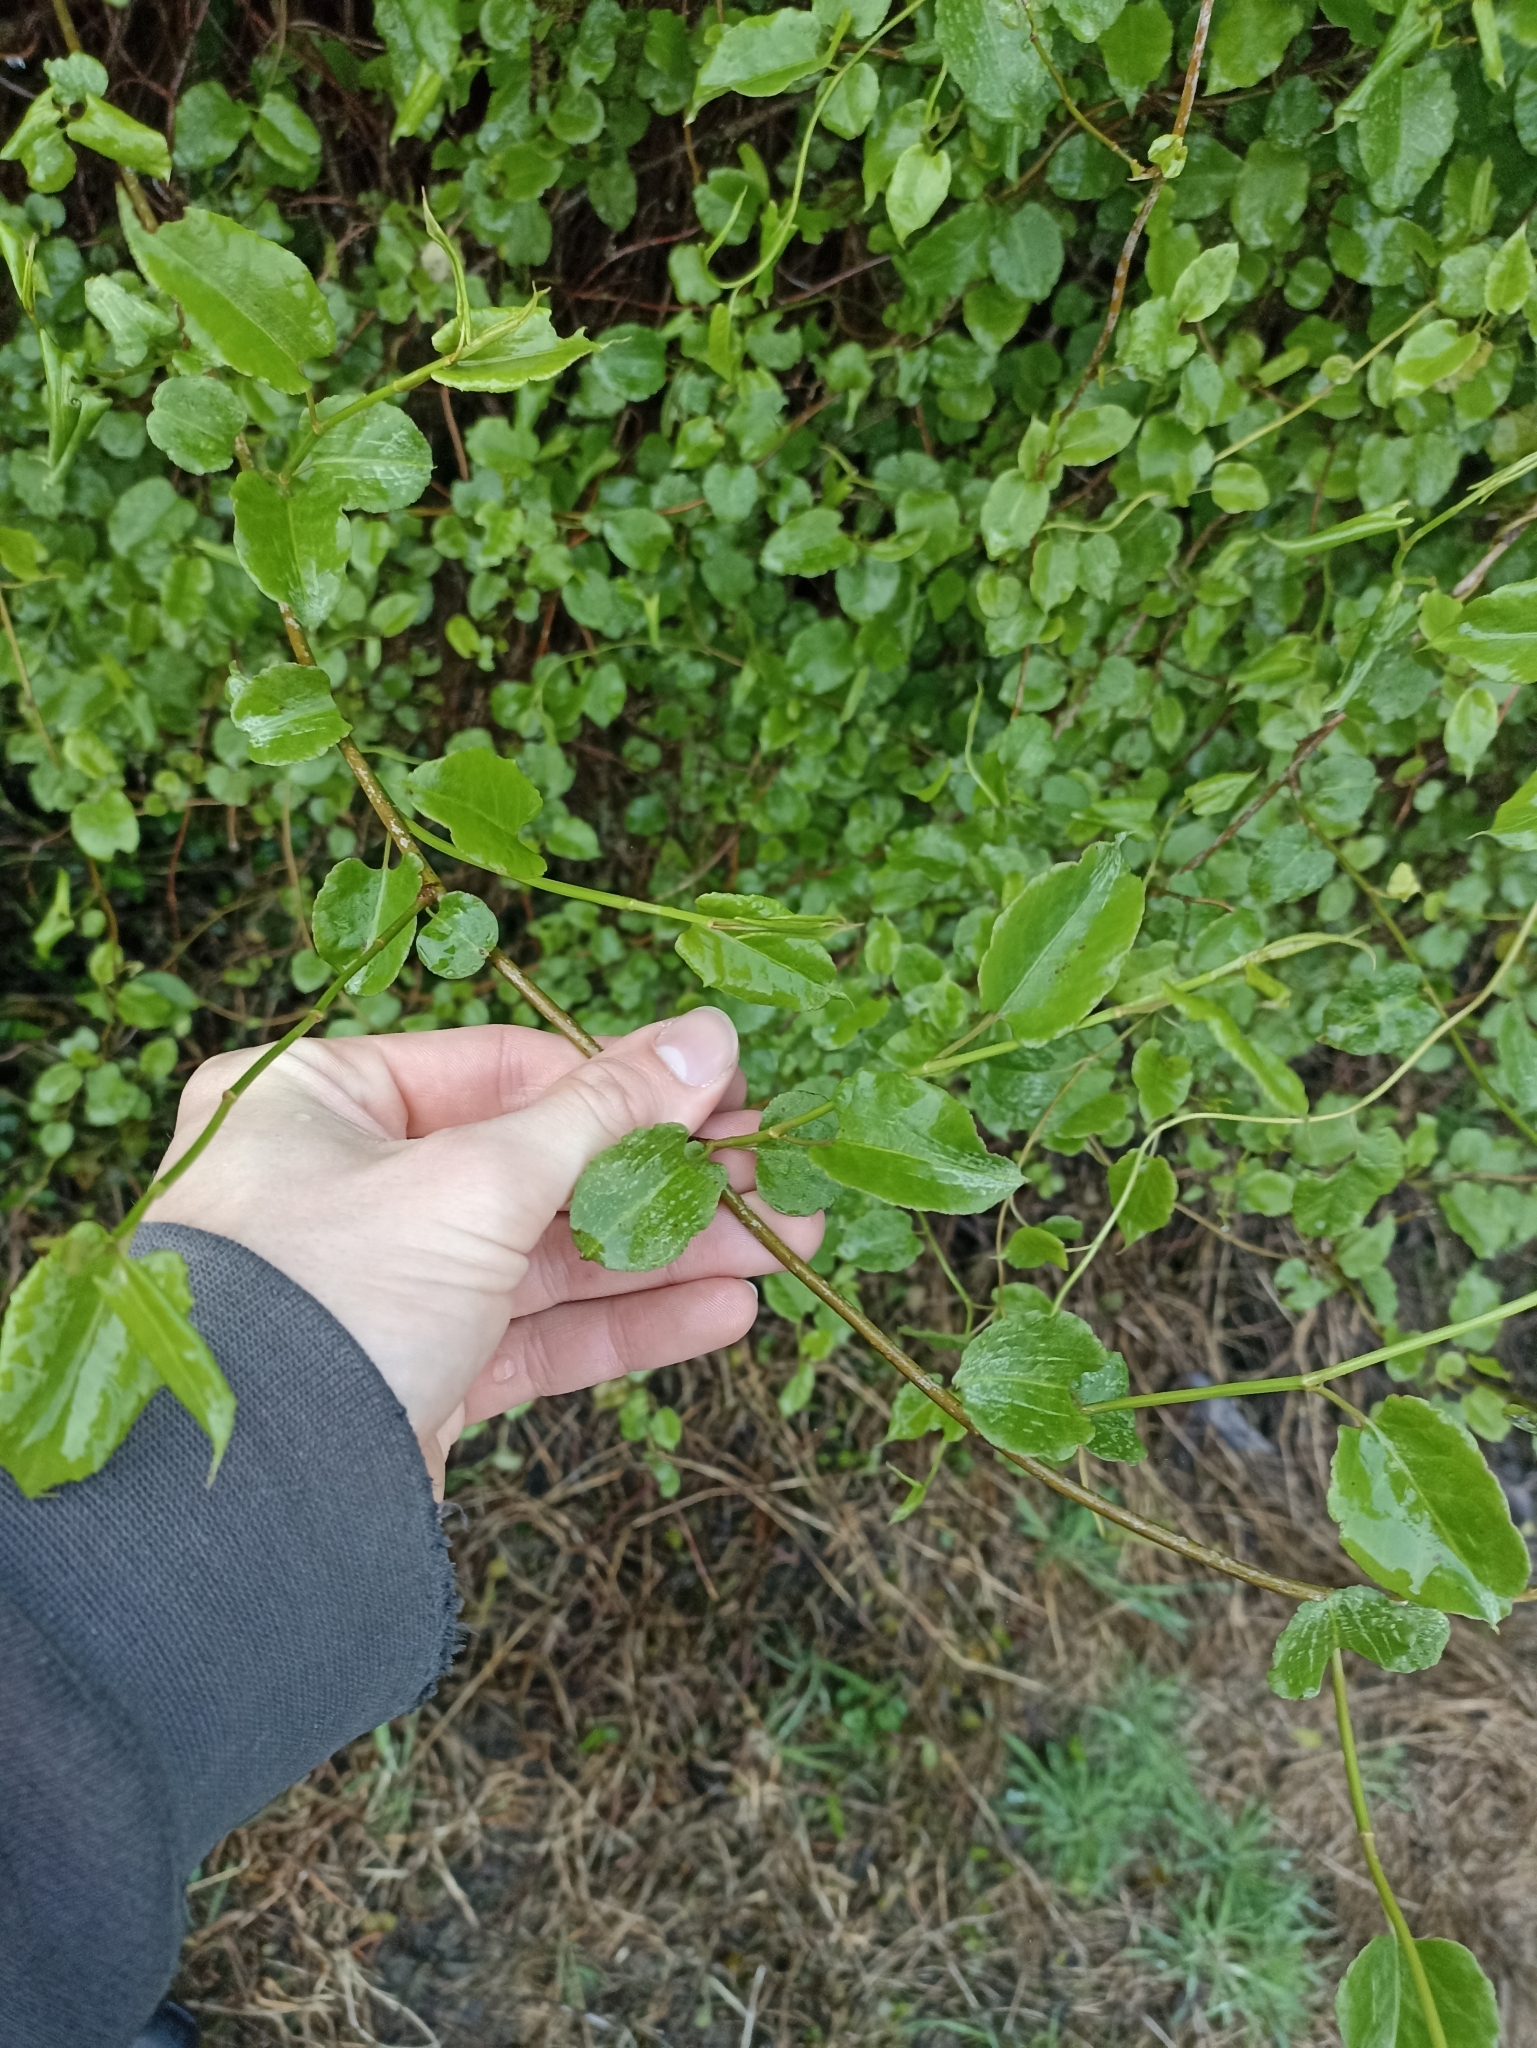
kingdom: Plantae
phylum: Tracheophyta
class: Magnoliopsida
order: Caryophyllales
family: Polygonaceae
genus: Muehlenbeckia
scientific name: Muehlenbeckia australis
